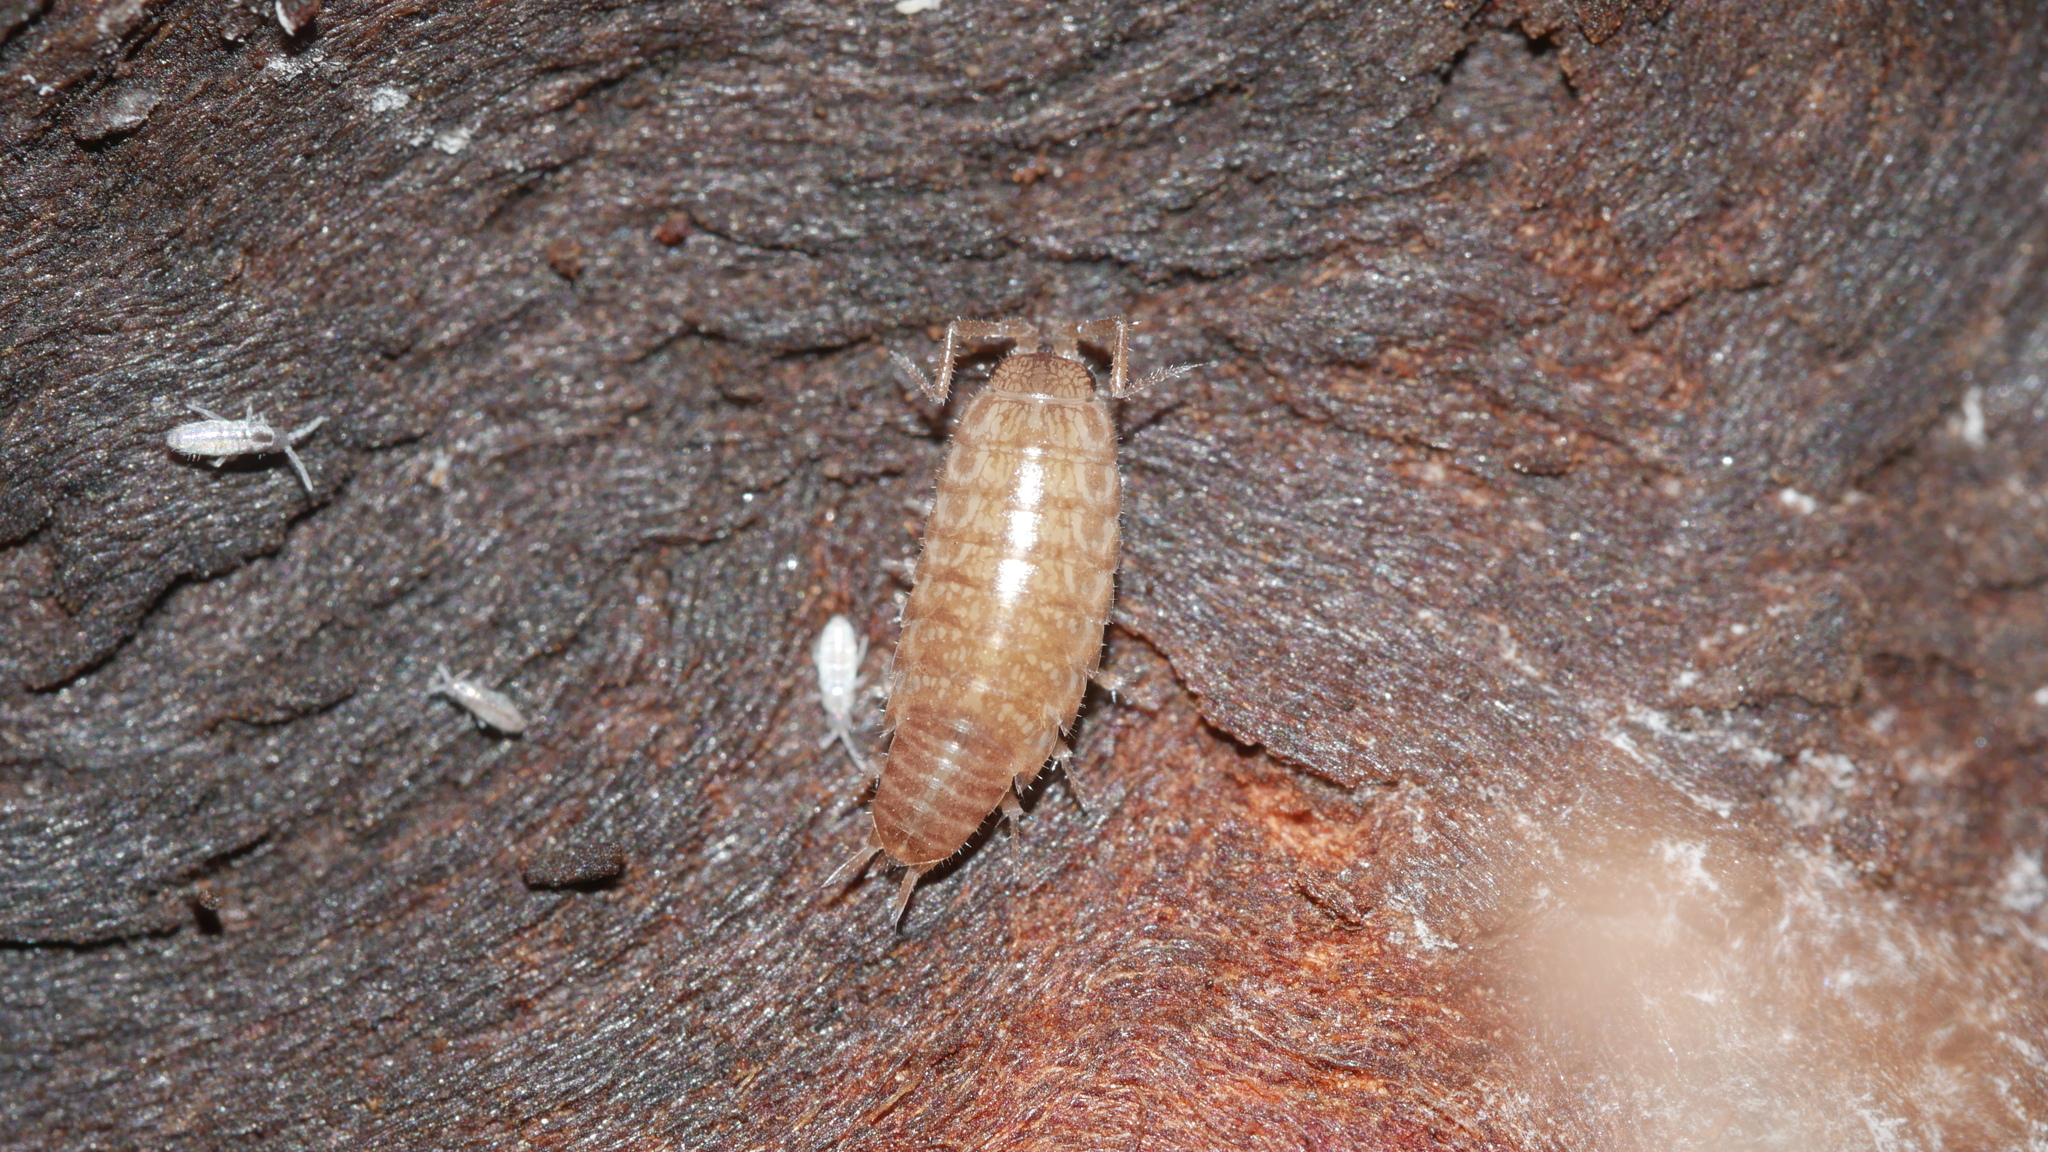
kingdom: Animalia
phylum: Arthropoda
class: Malacostraca
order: Isopoda
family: Philosciidae
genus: Chaetophiloscia
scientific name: Chaetophiloscia sicula
